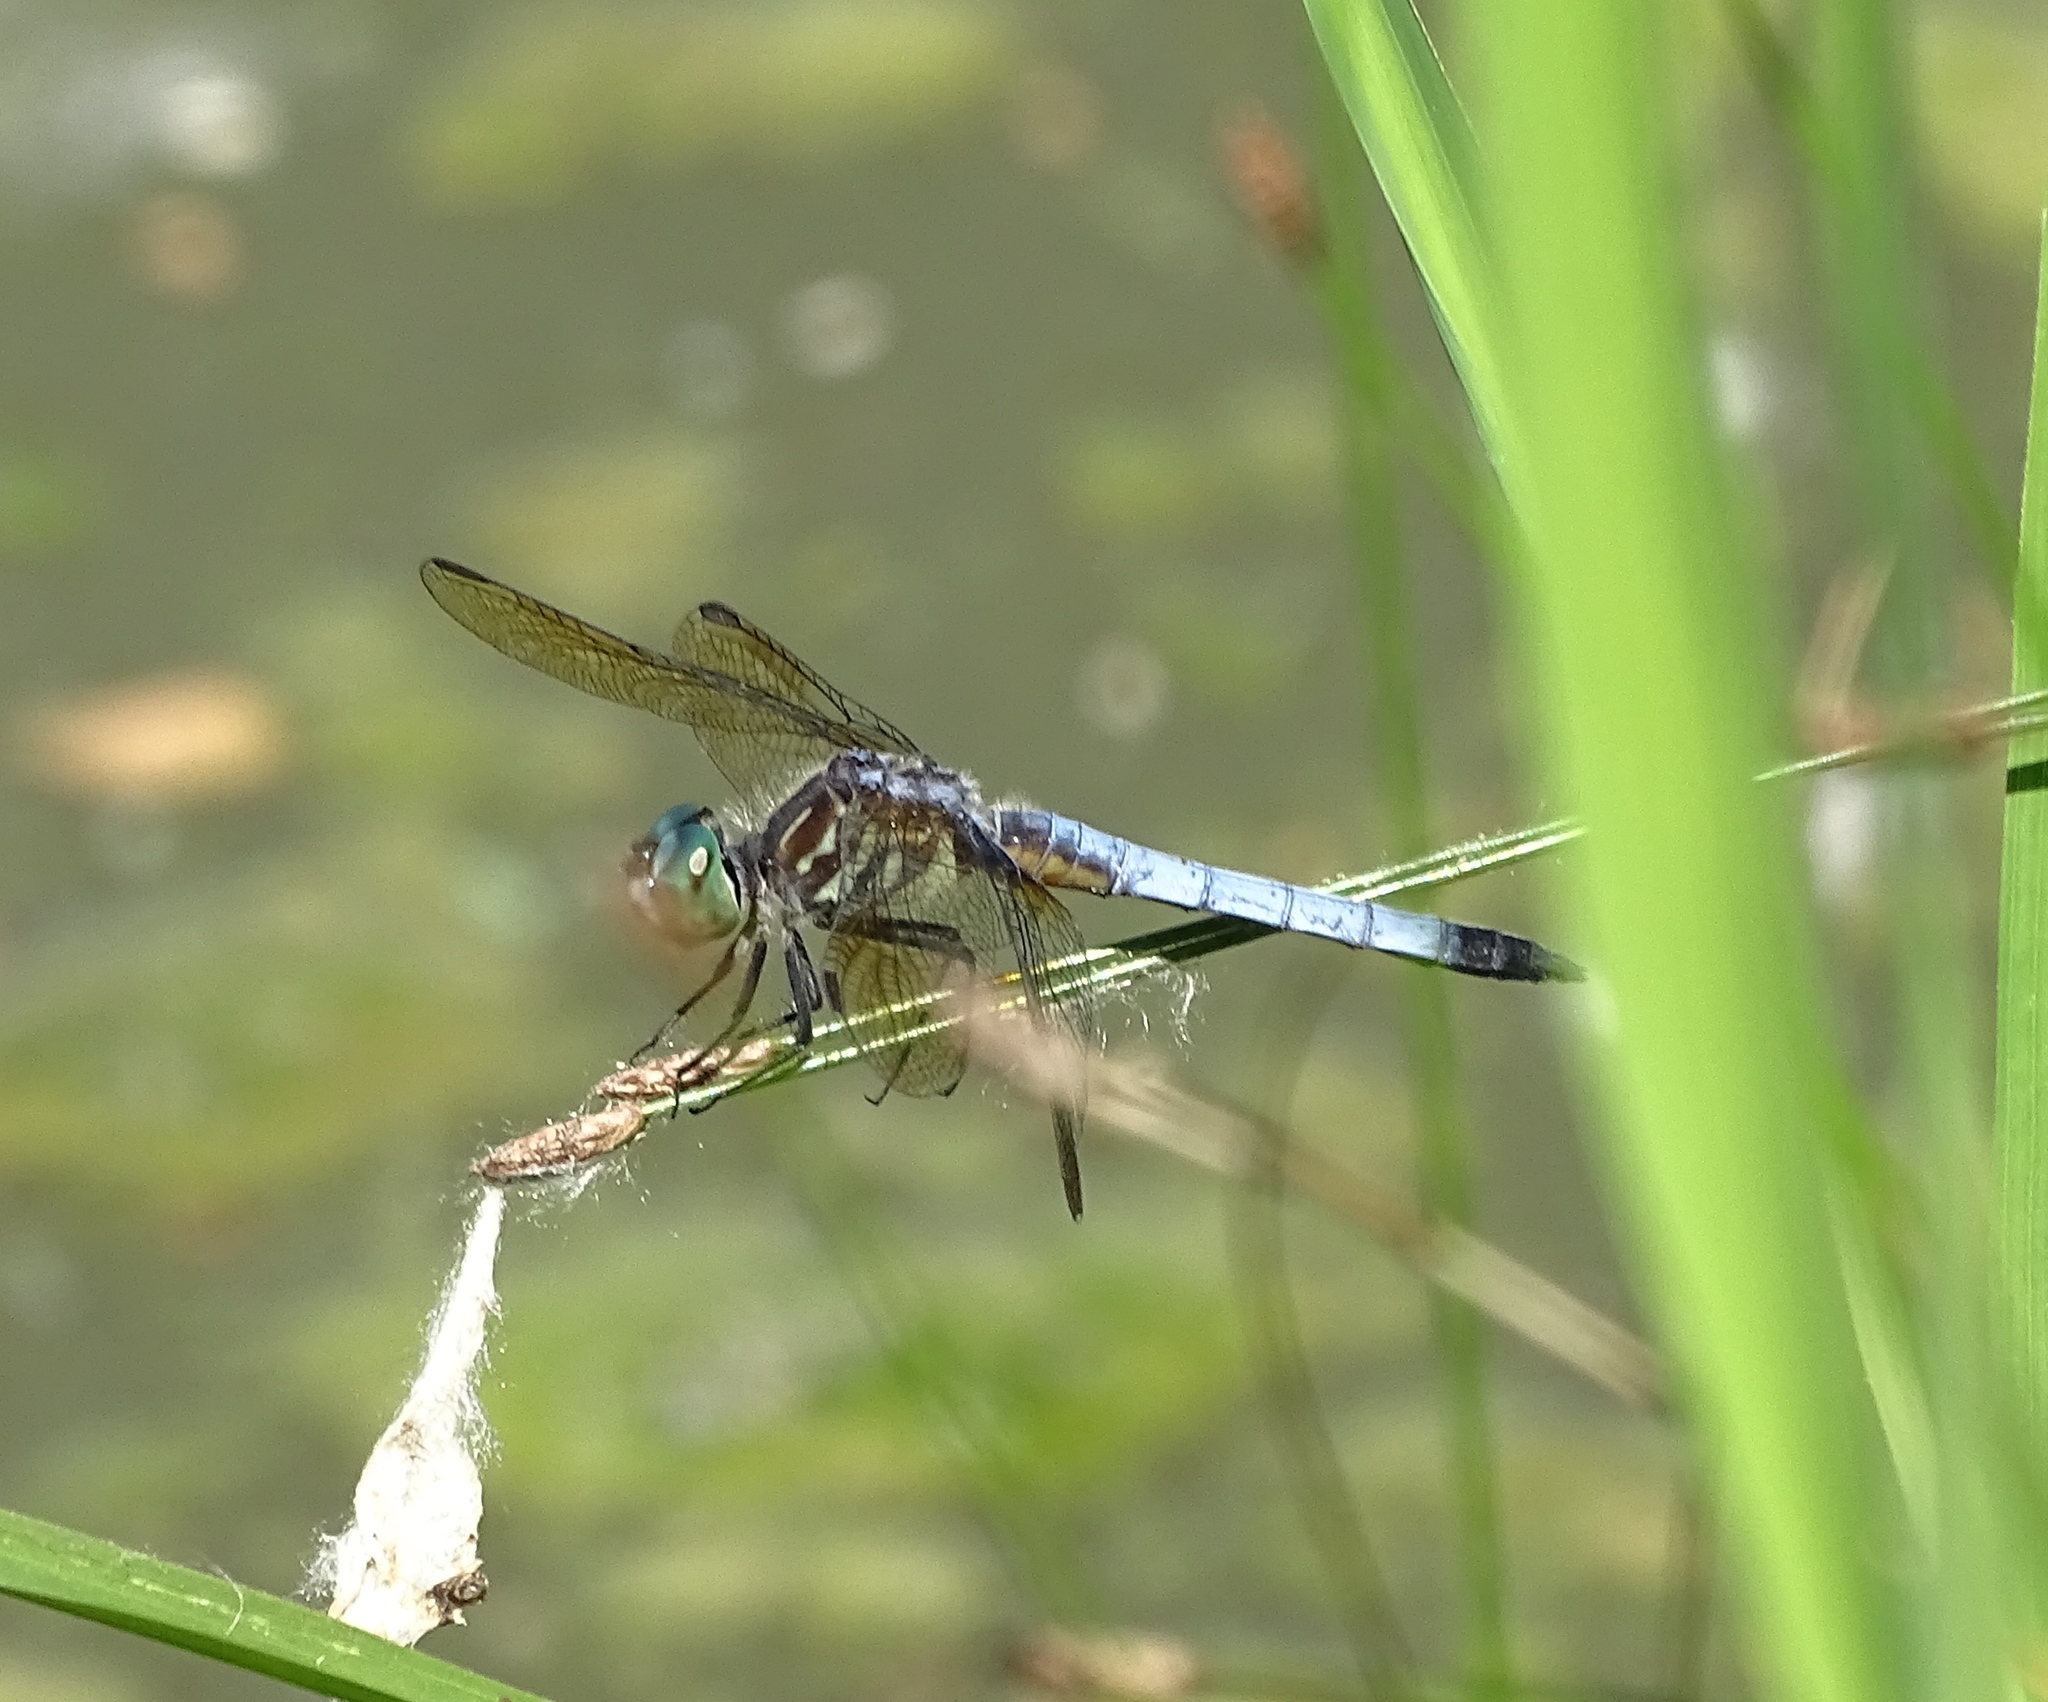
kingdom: Animalia
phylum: Arthropoda
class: Insecta
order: Odonata
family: Libellulidae
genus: Pachydiplax
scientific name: Pachydiplax longipennis
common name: Blue dasher
